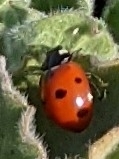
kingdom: Animalia
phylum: Arthropoda
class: Insecta
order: Coleoptera
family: Coccinellidae
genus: Coccinella
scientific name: Coccinella septempunctata
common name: Sevenspotted lady beetle
